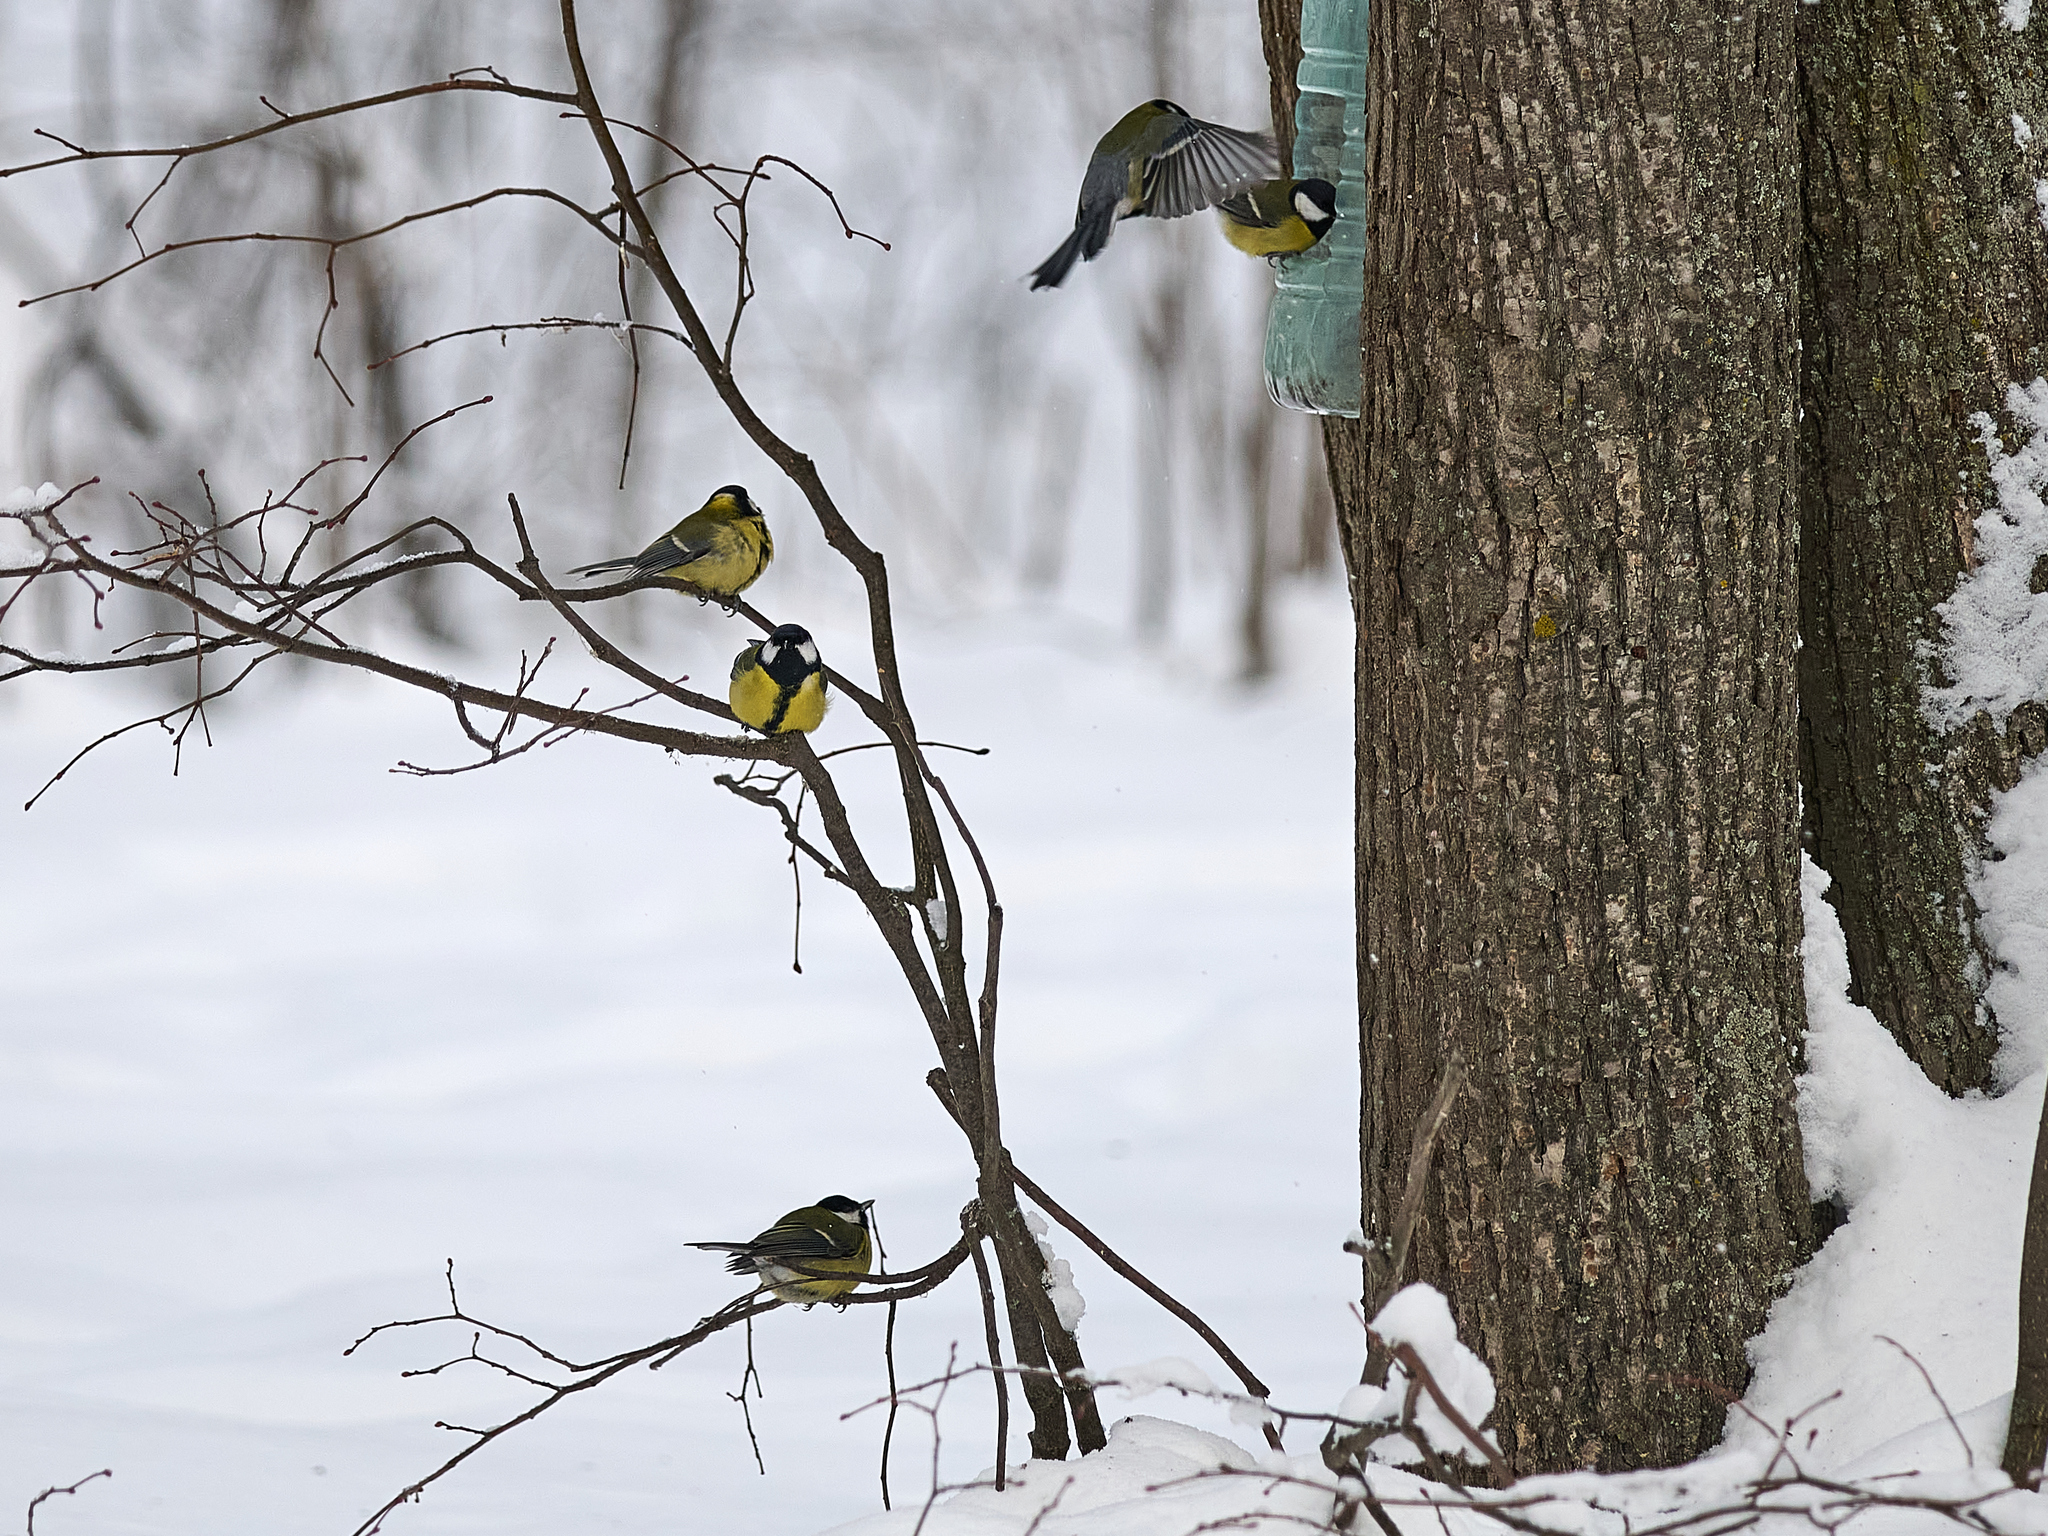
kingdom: Animalia
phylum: Chordata
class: Aves
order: Passeriformes
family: Paridae
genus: Parus
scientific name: Parus major
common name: Great tit
